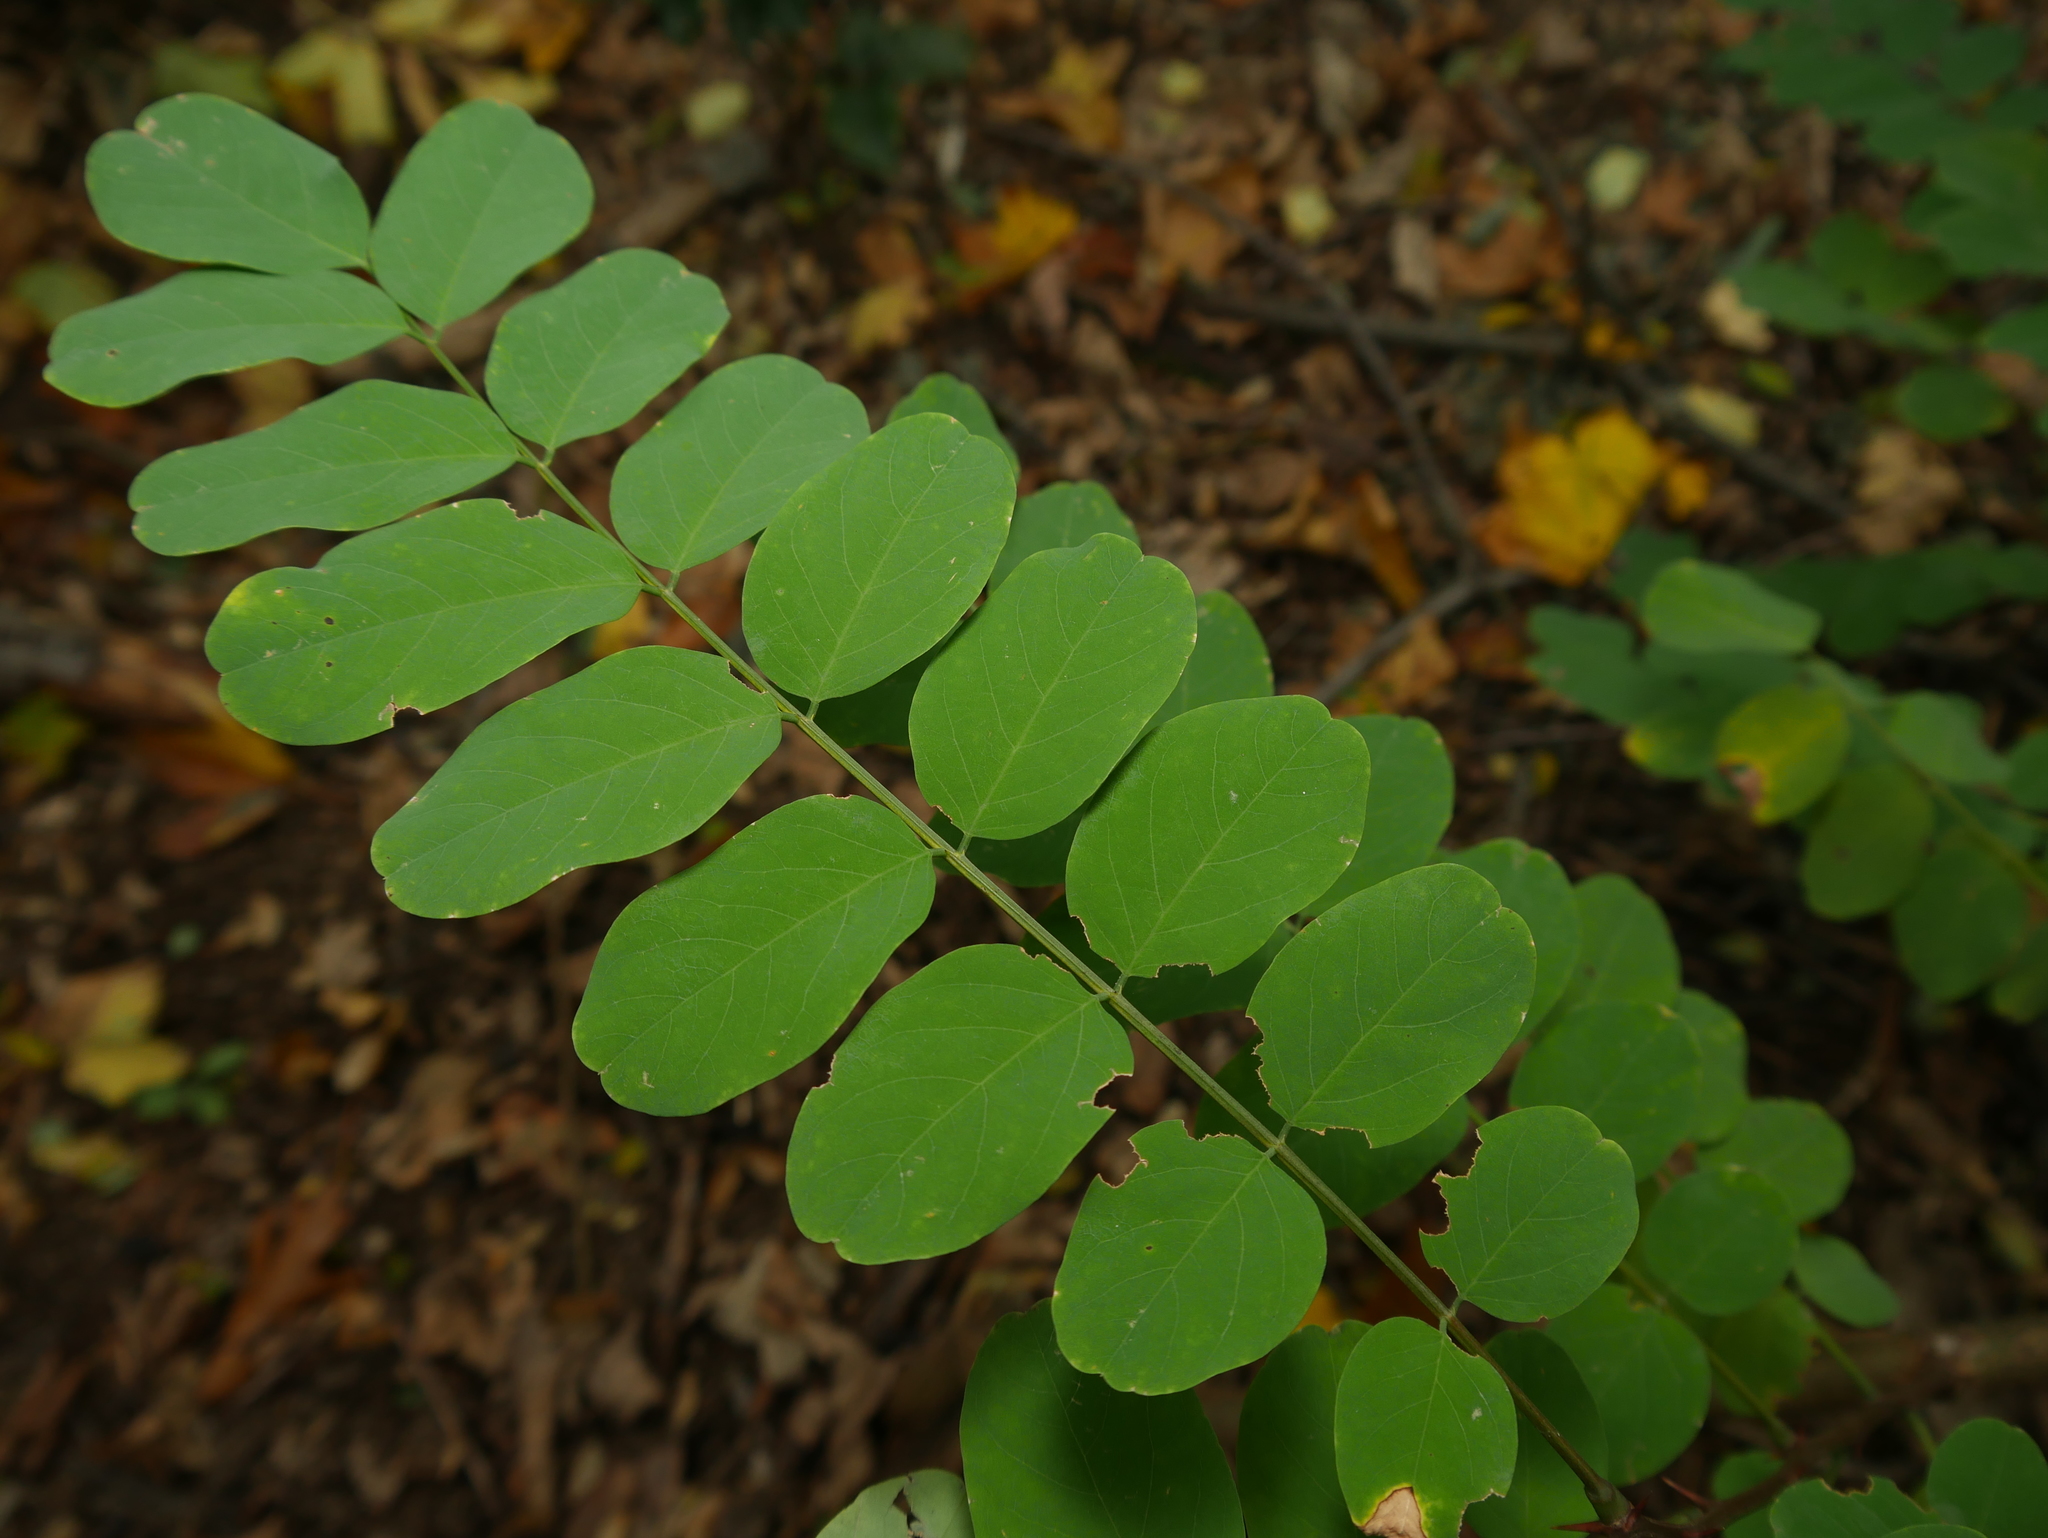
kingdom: Plantae
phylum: Tracheophyta
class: Magnoliopsida
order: Fabales
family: Fabaceae
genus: Robinia
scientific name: Robinia pseudoacacia
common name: Black locust
